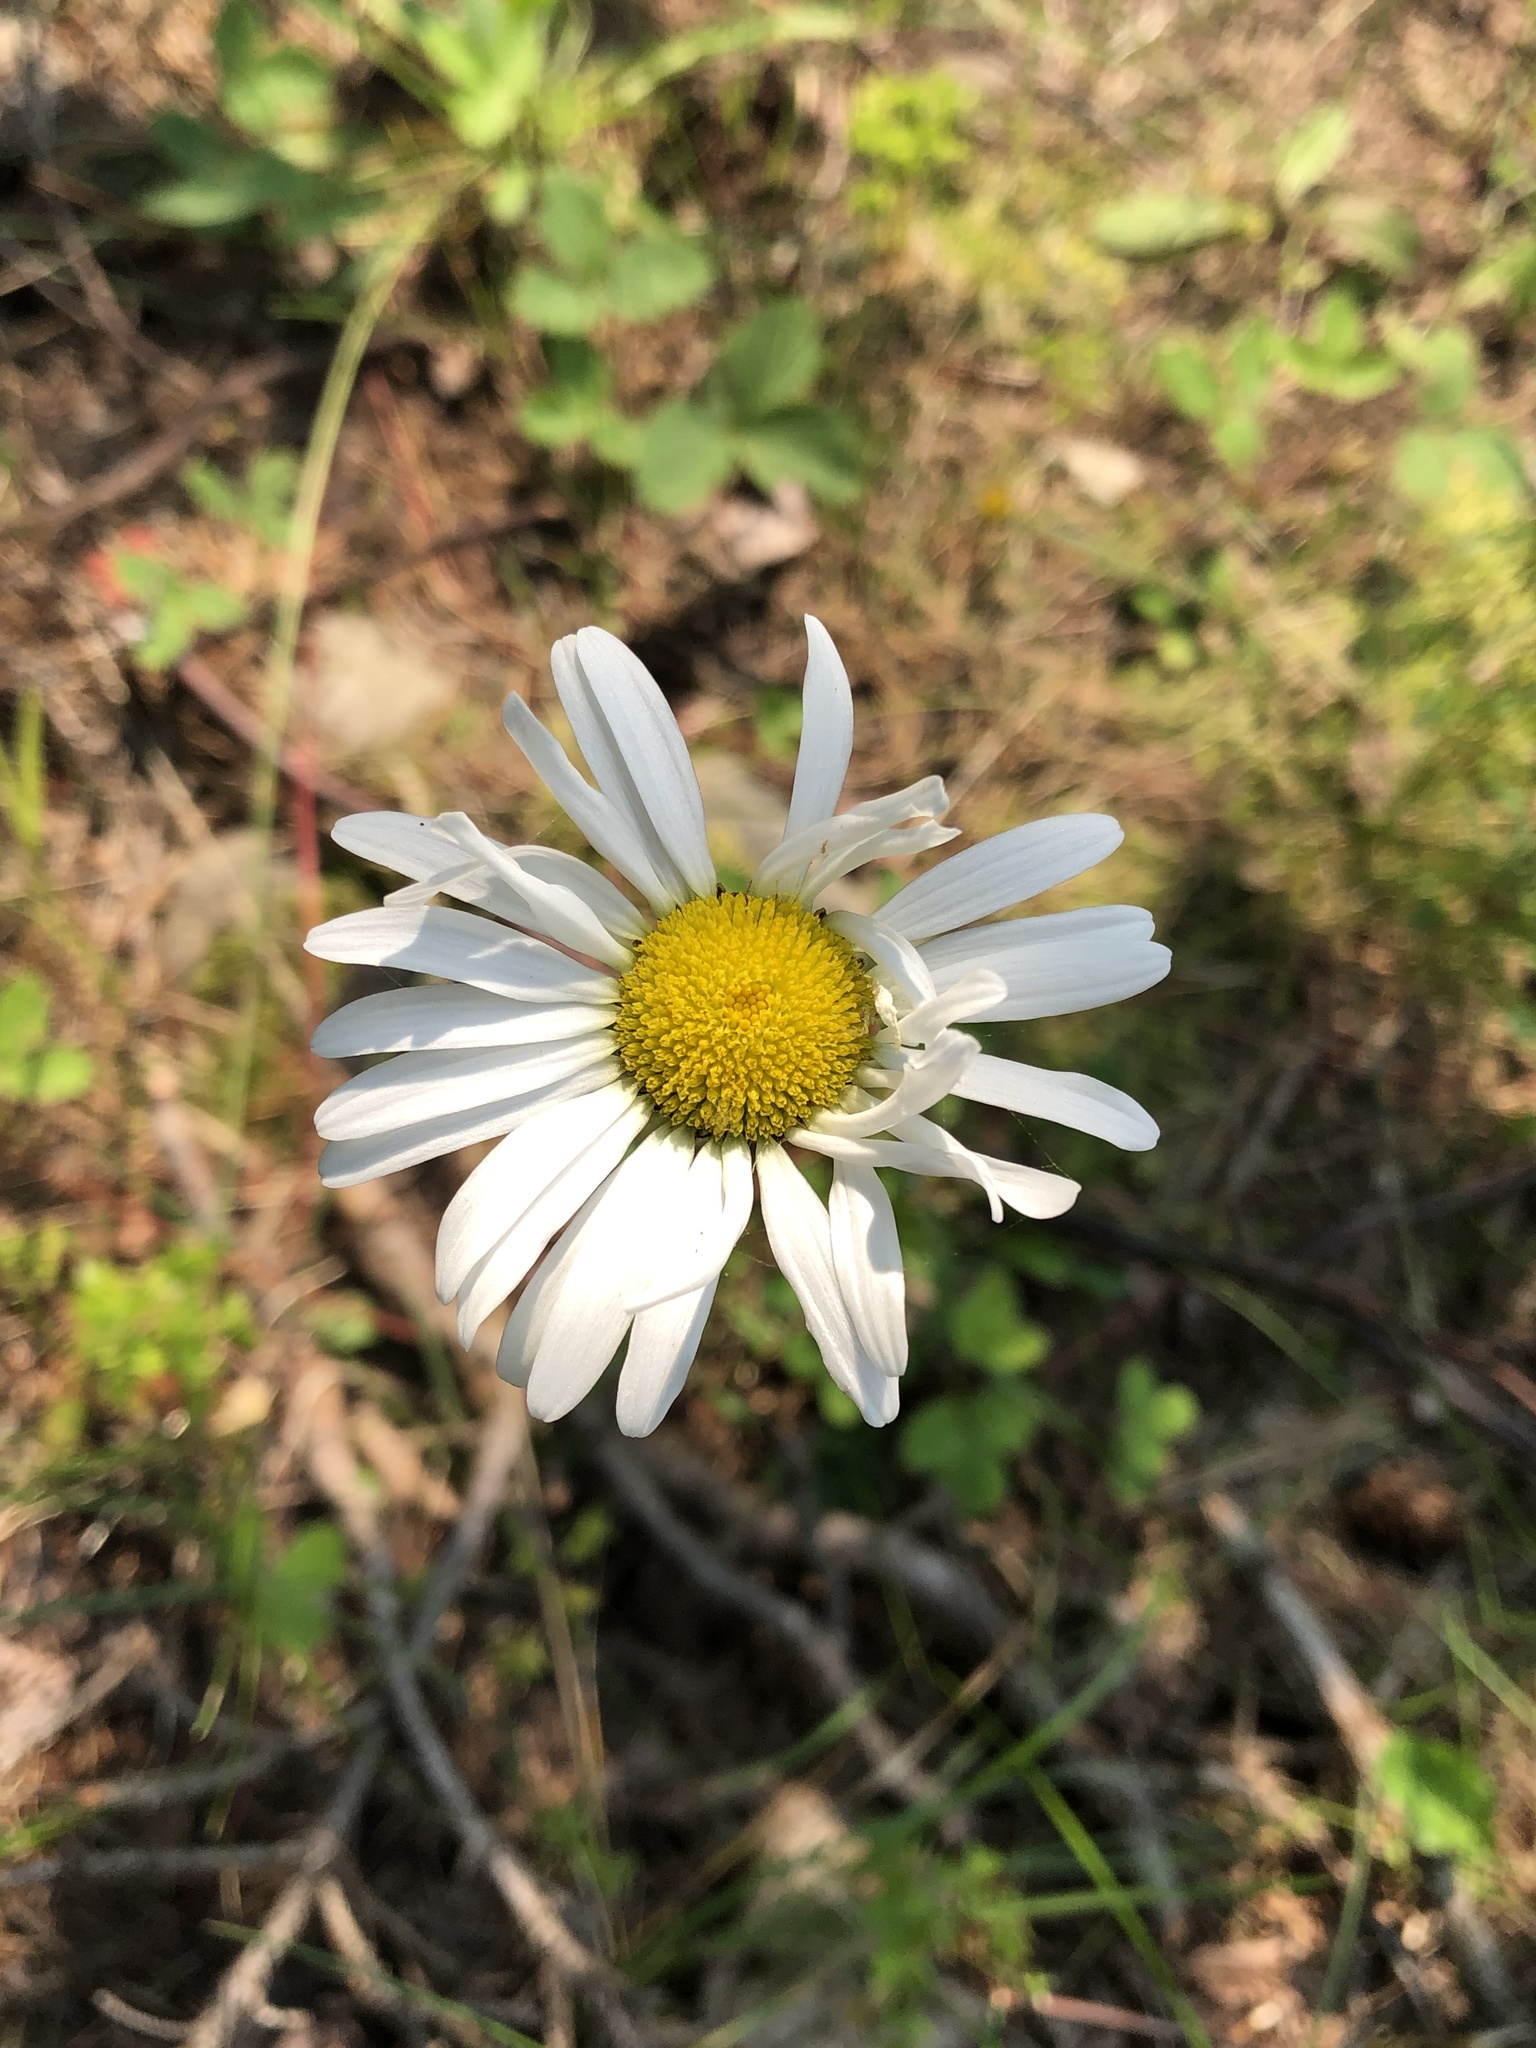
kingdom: Plantae
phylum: Tracheophyta
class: Magnoliopsida
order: Asterales
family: Asteraceae
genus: Leucanthemum
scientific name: Leucanthemum vulgare
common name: Oxeye daisy
